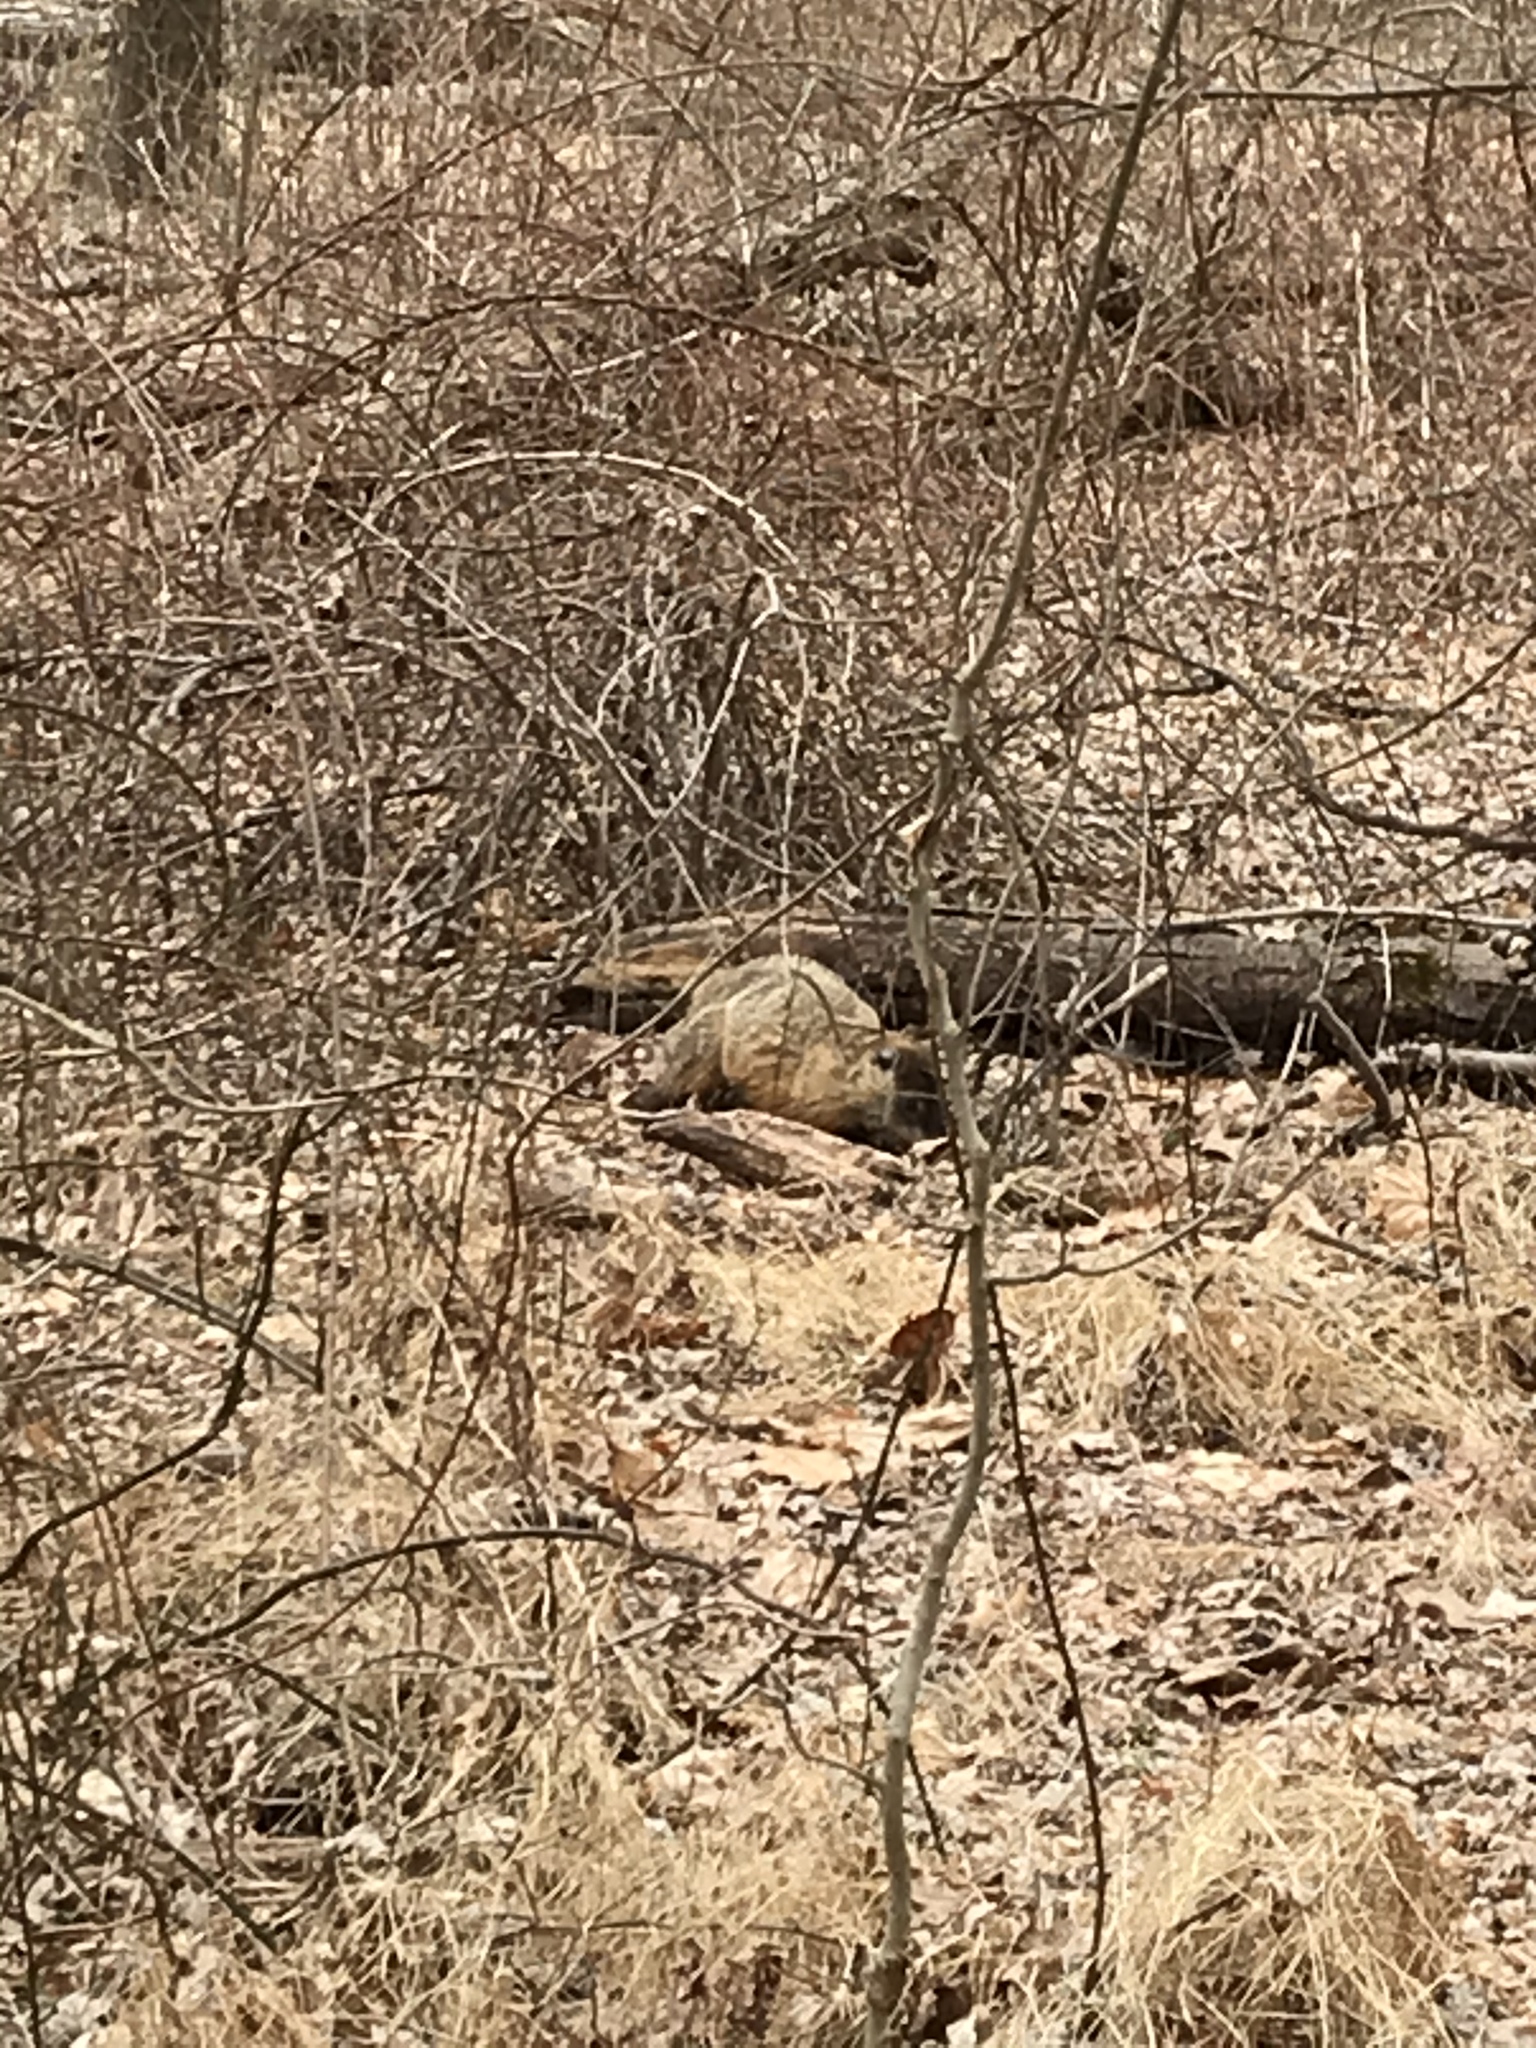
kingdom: Animalia
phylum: Chordata
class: Mammalia
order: Rodentia
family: Sciuridae
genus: Marmota
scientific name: Marmota monax
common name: Groundhog
